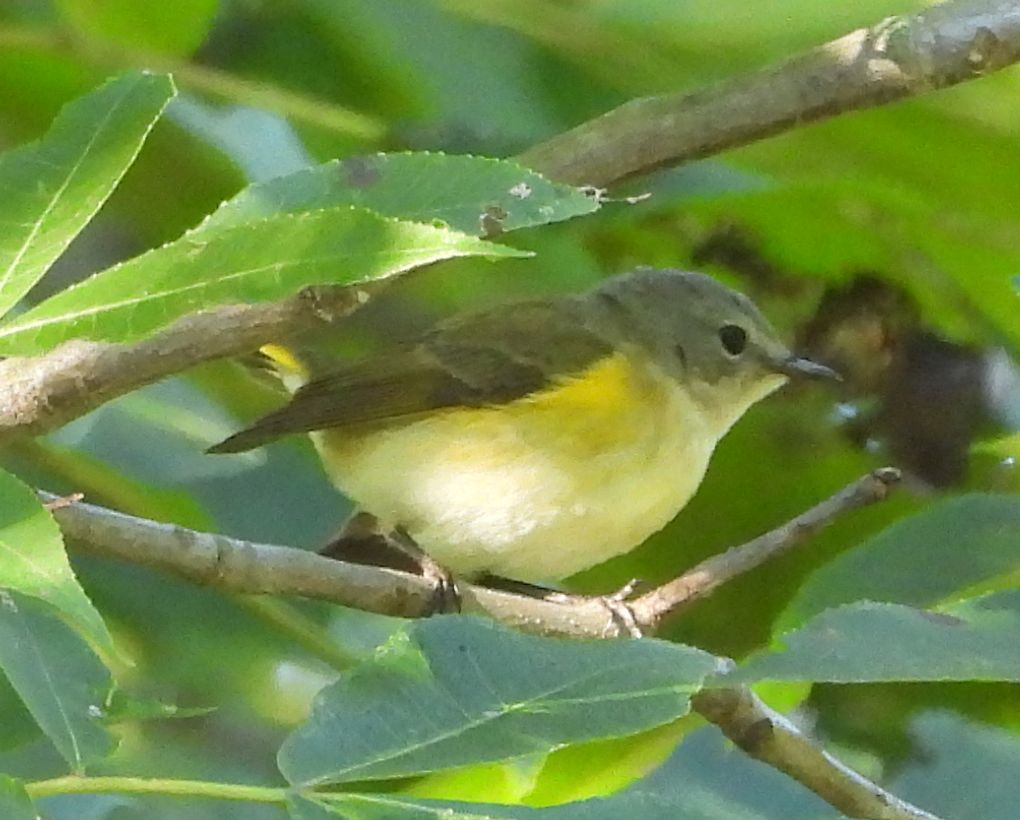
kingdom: Animalia
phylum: Chordata
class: Aves
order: Passeriformes
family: Parulidae
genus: Setophaga
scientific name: Setophaga ruticilla
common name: American redstart
